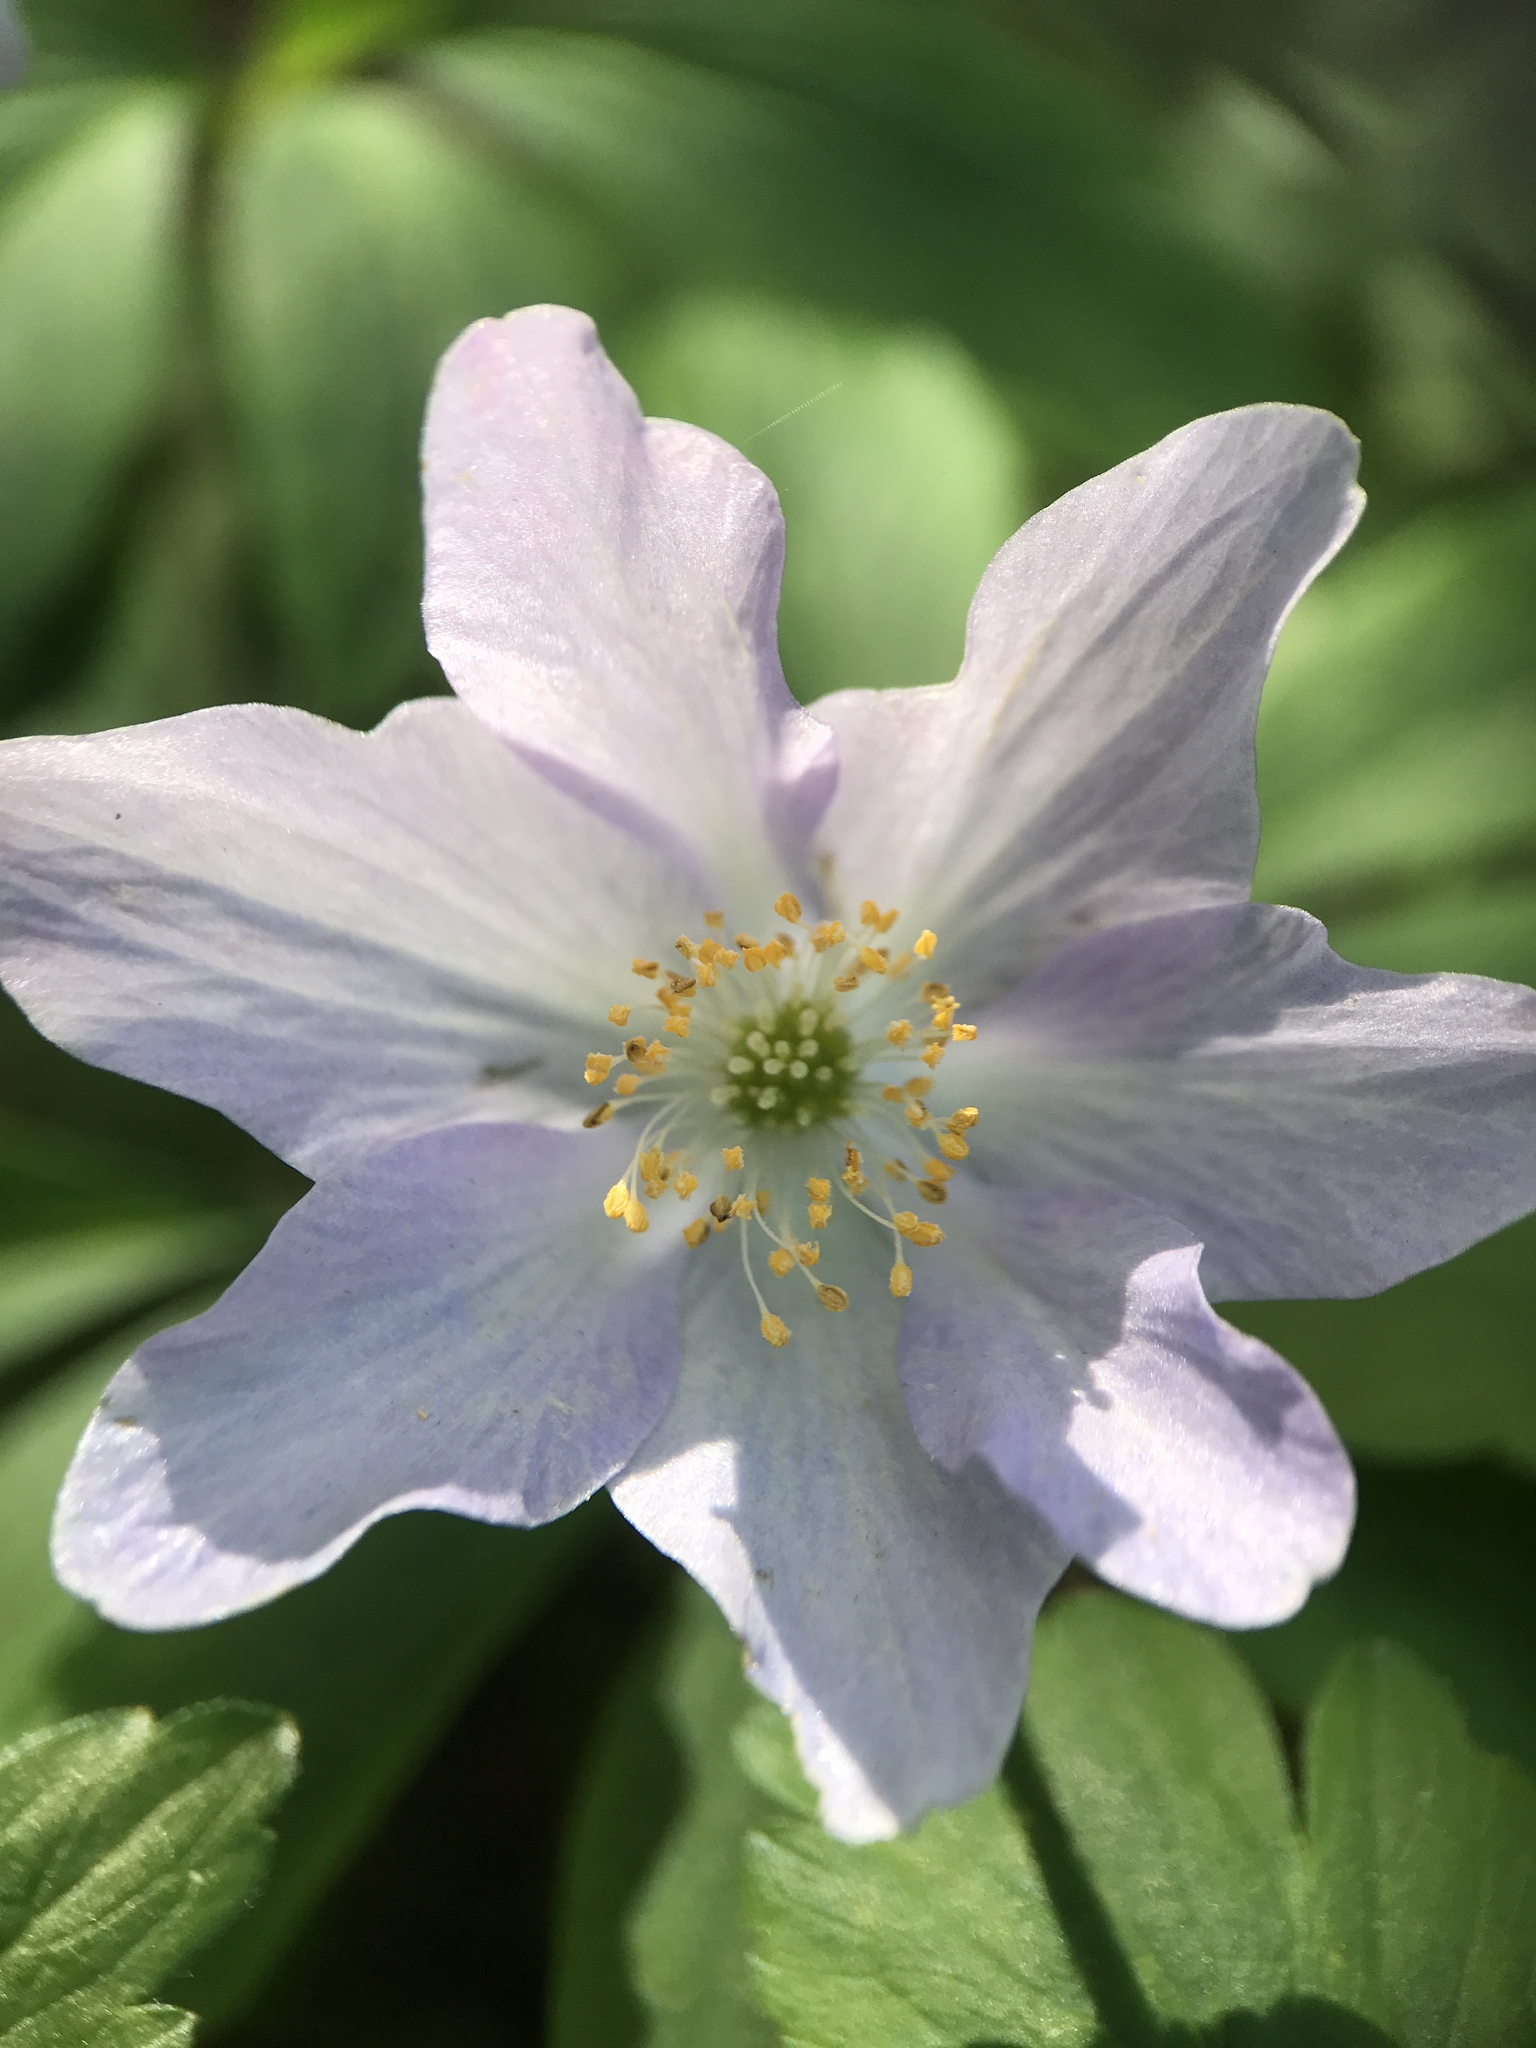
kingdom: Plantae
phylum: Tracheophyta
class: Magnoliopsida
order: Ranunculales
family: Ranunculaceae
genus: Anemone
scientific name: Anemone nemorosa
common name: Wood anemone
